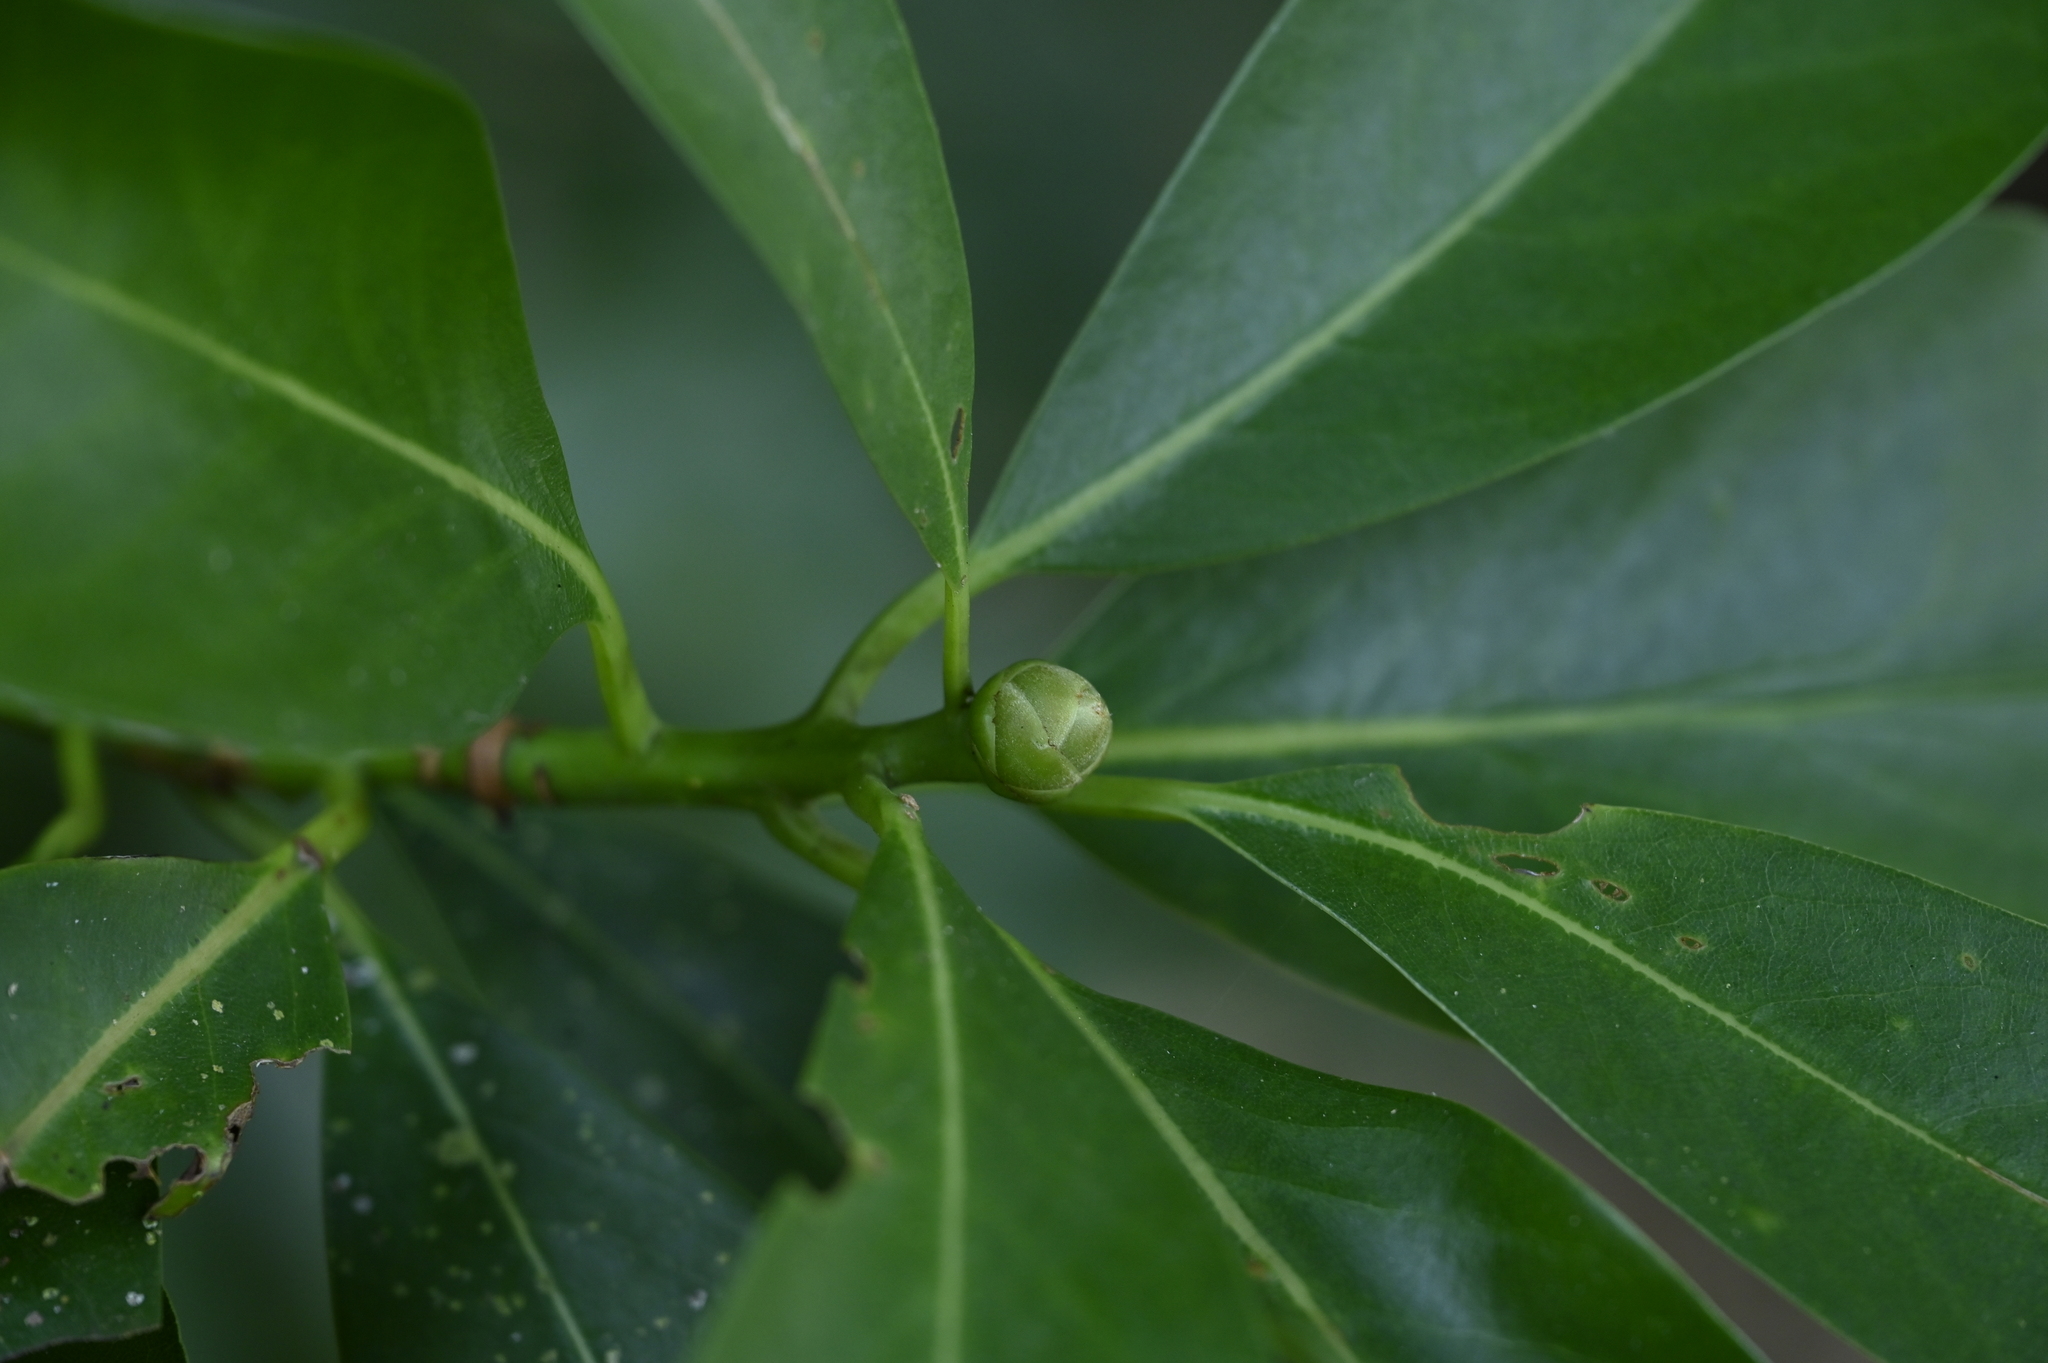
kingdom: Plantae
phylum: Tracheophyta
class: Magnoliopsida
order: Laurales
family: Lauraceae
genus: Machilus
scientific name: Machilus japonica
